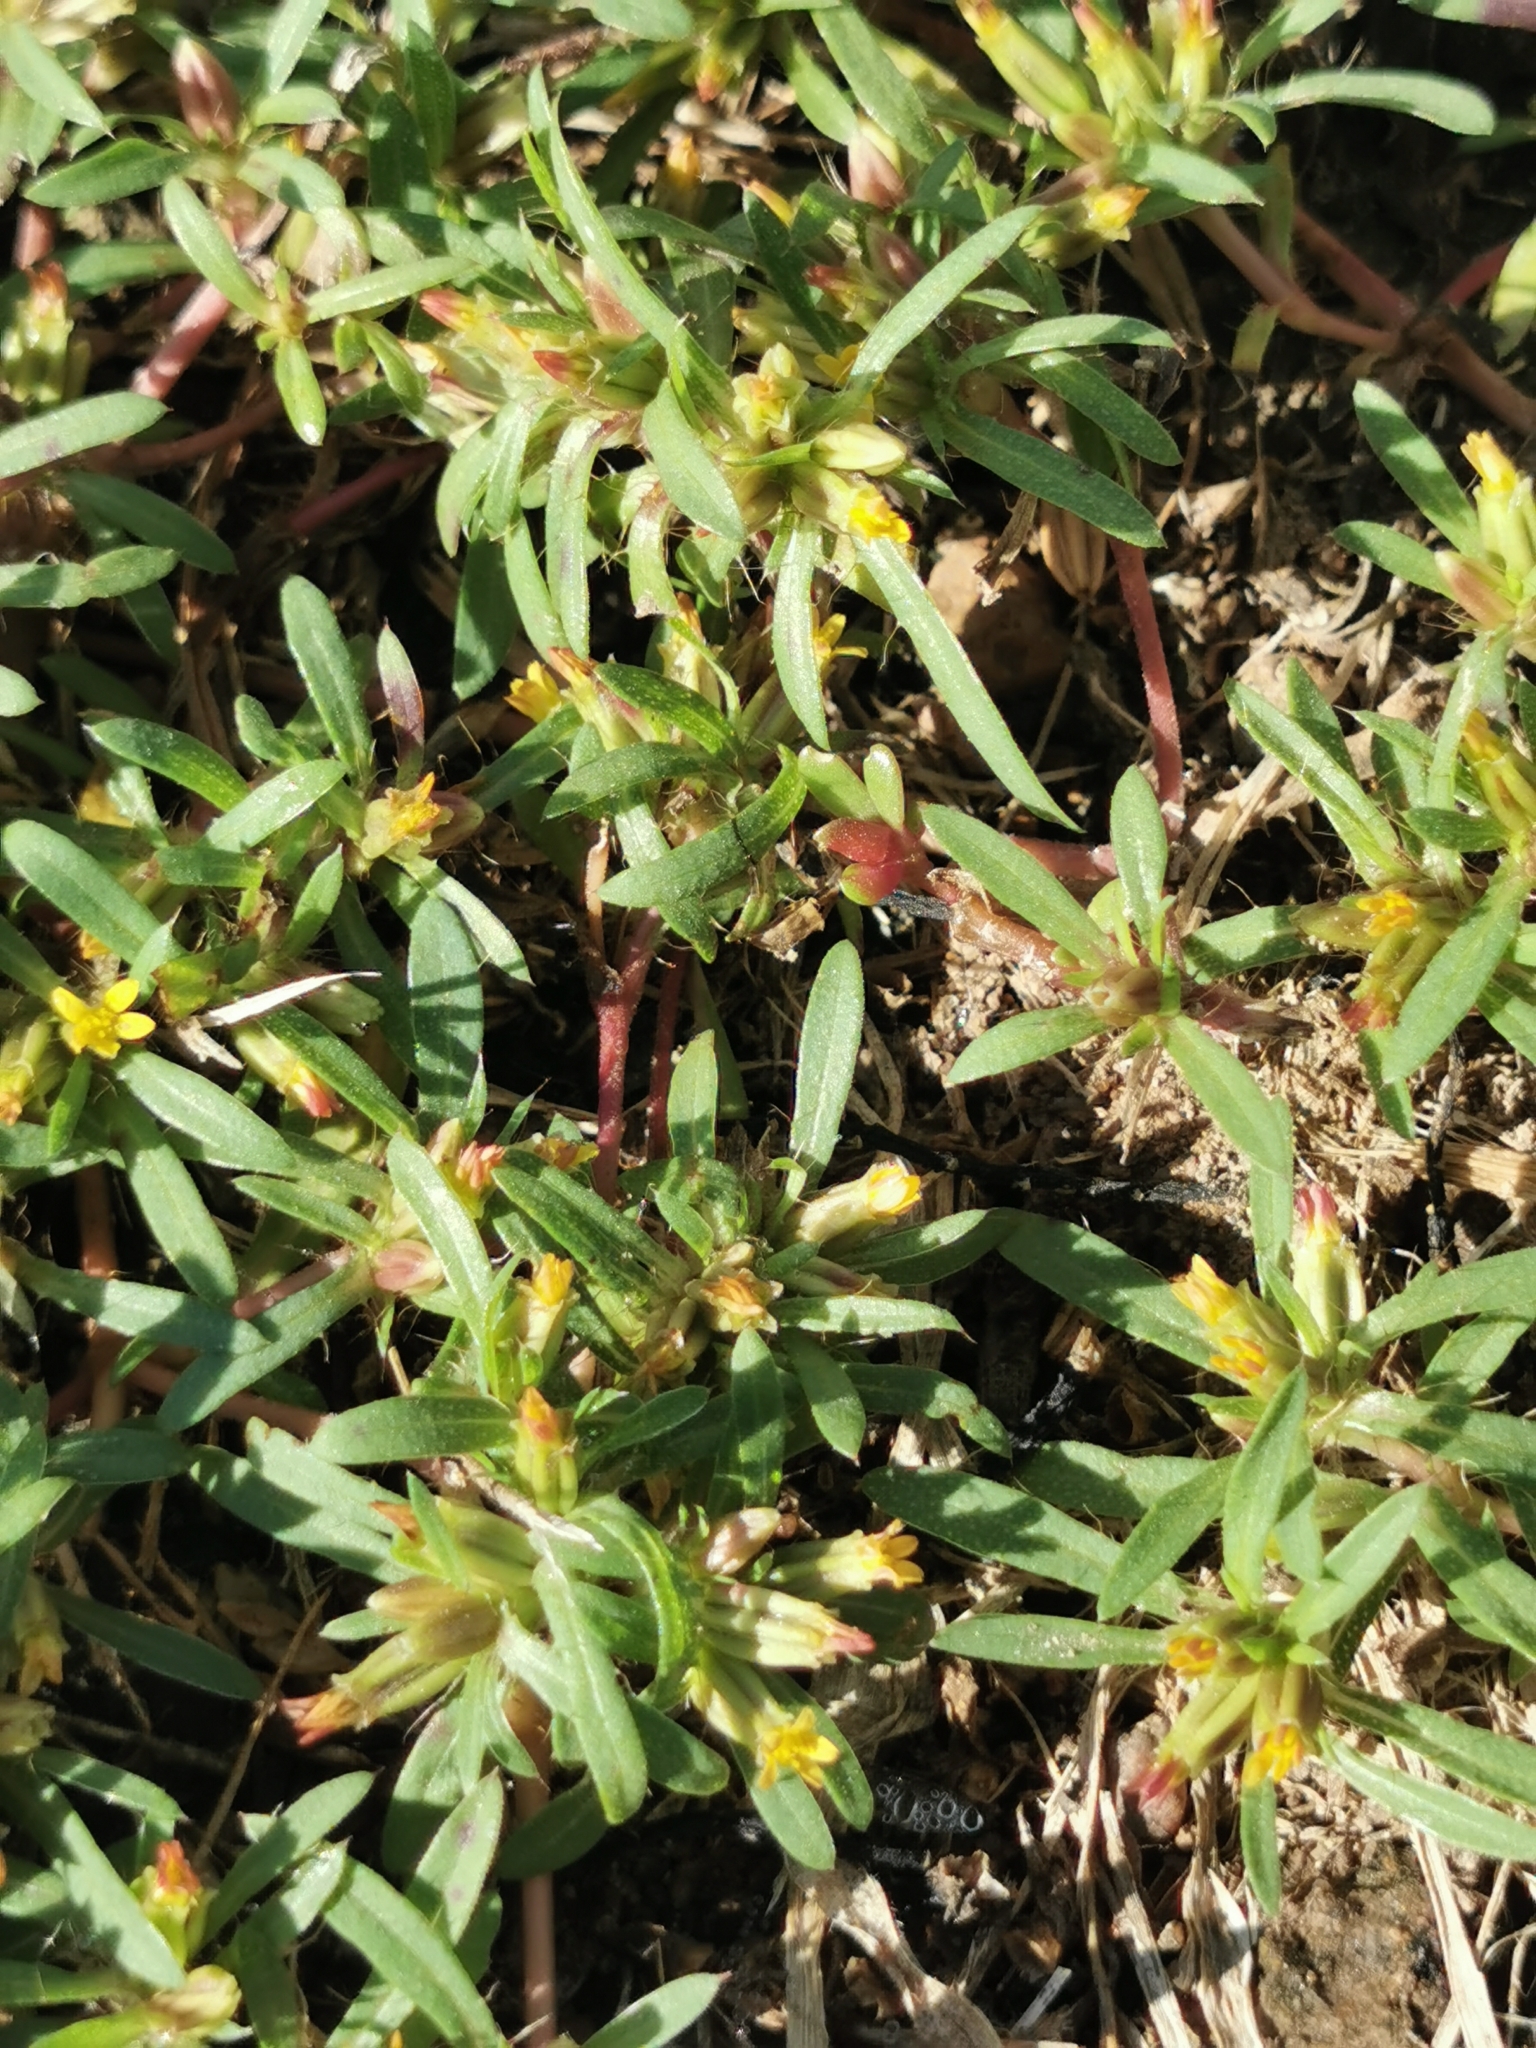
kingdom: Plantae
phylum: Tracheophyta
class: Magnoliopsida
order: Asterales
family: Asteraceae
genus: Pectis
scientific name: Pectis prostrata
